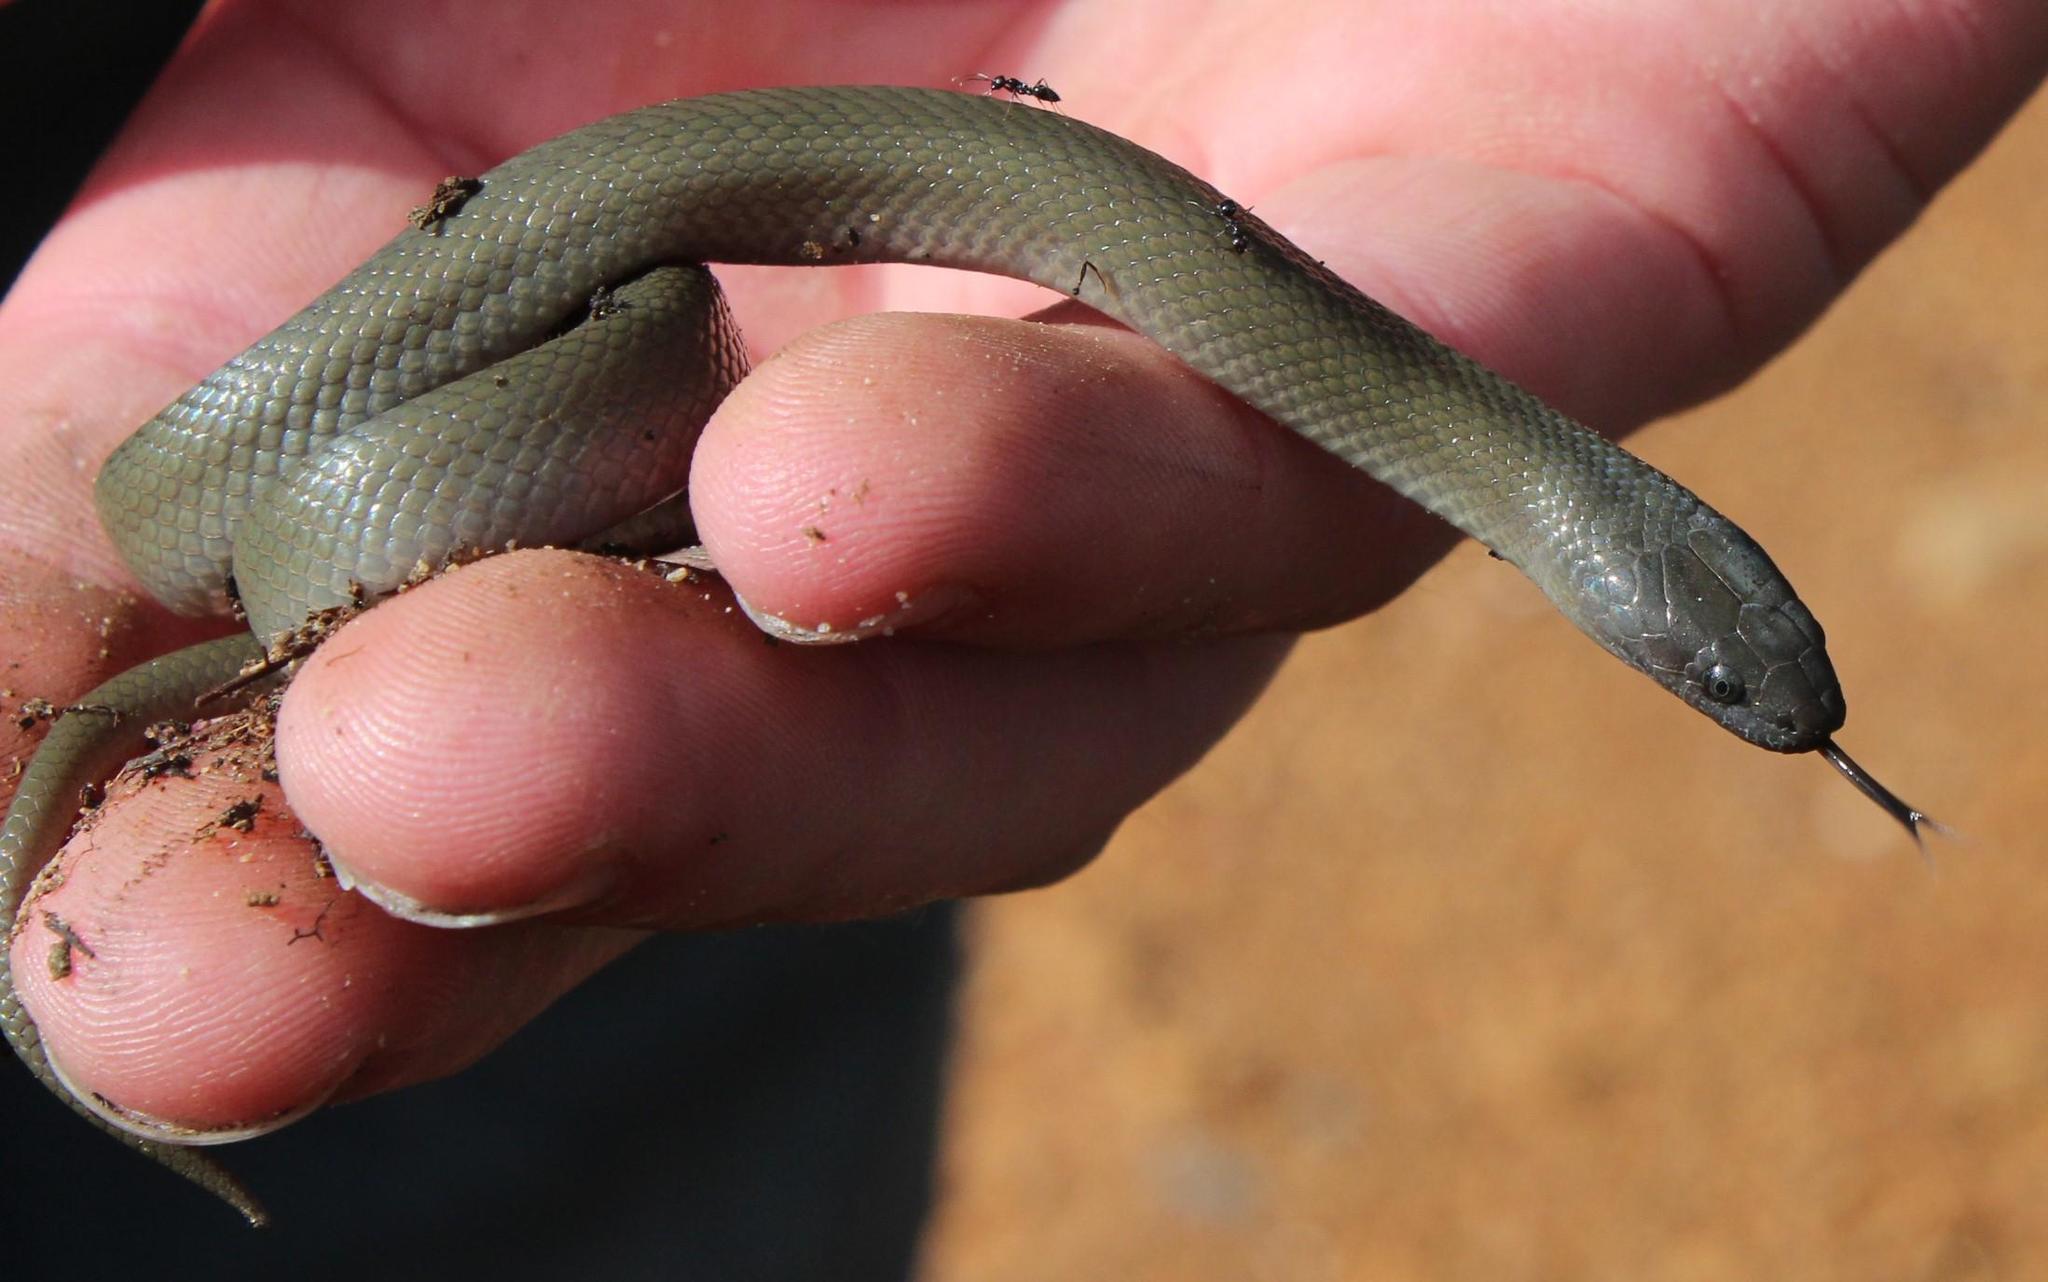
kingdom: Animalia
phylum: Chordata
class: Squamata
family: Lamprophiidae
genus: Lycodonomorphus
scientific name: Lycodonomorphus inornatus
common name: Black house snake
